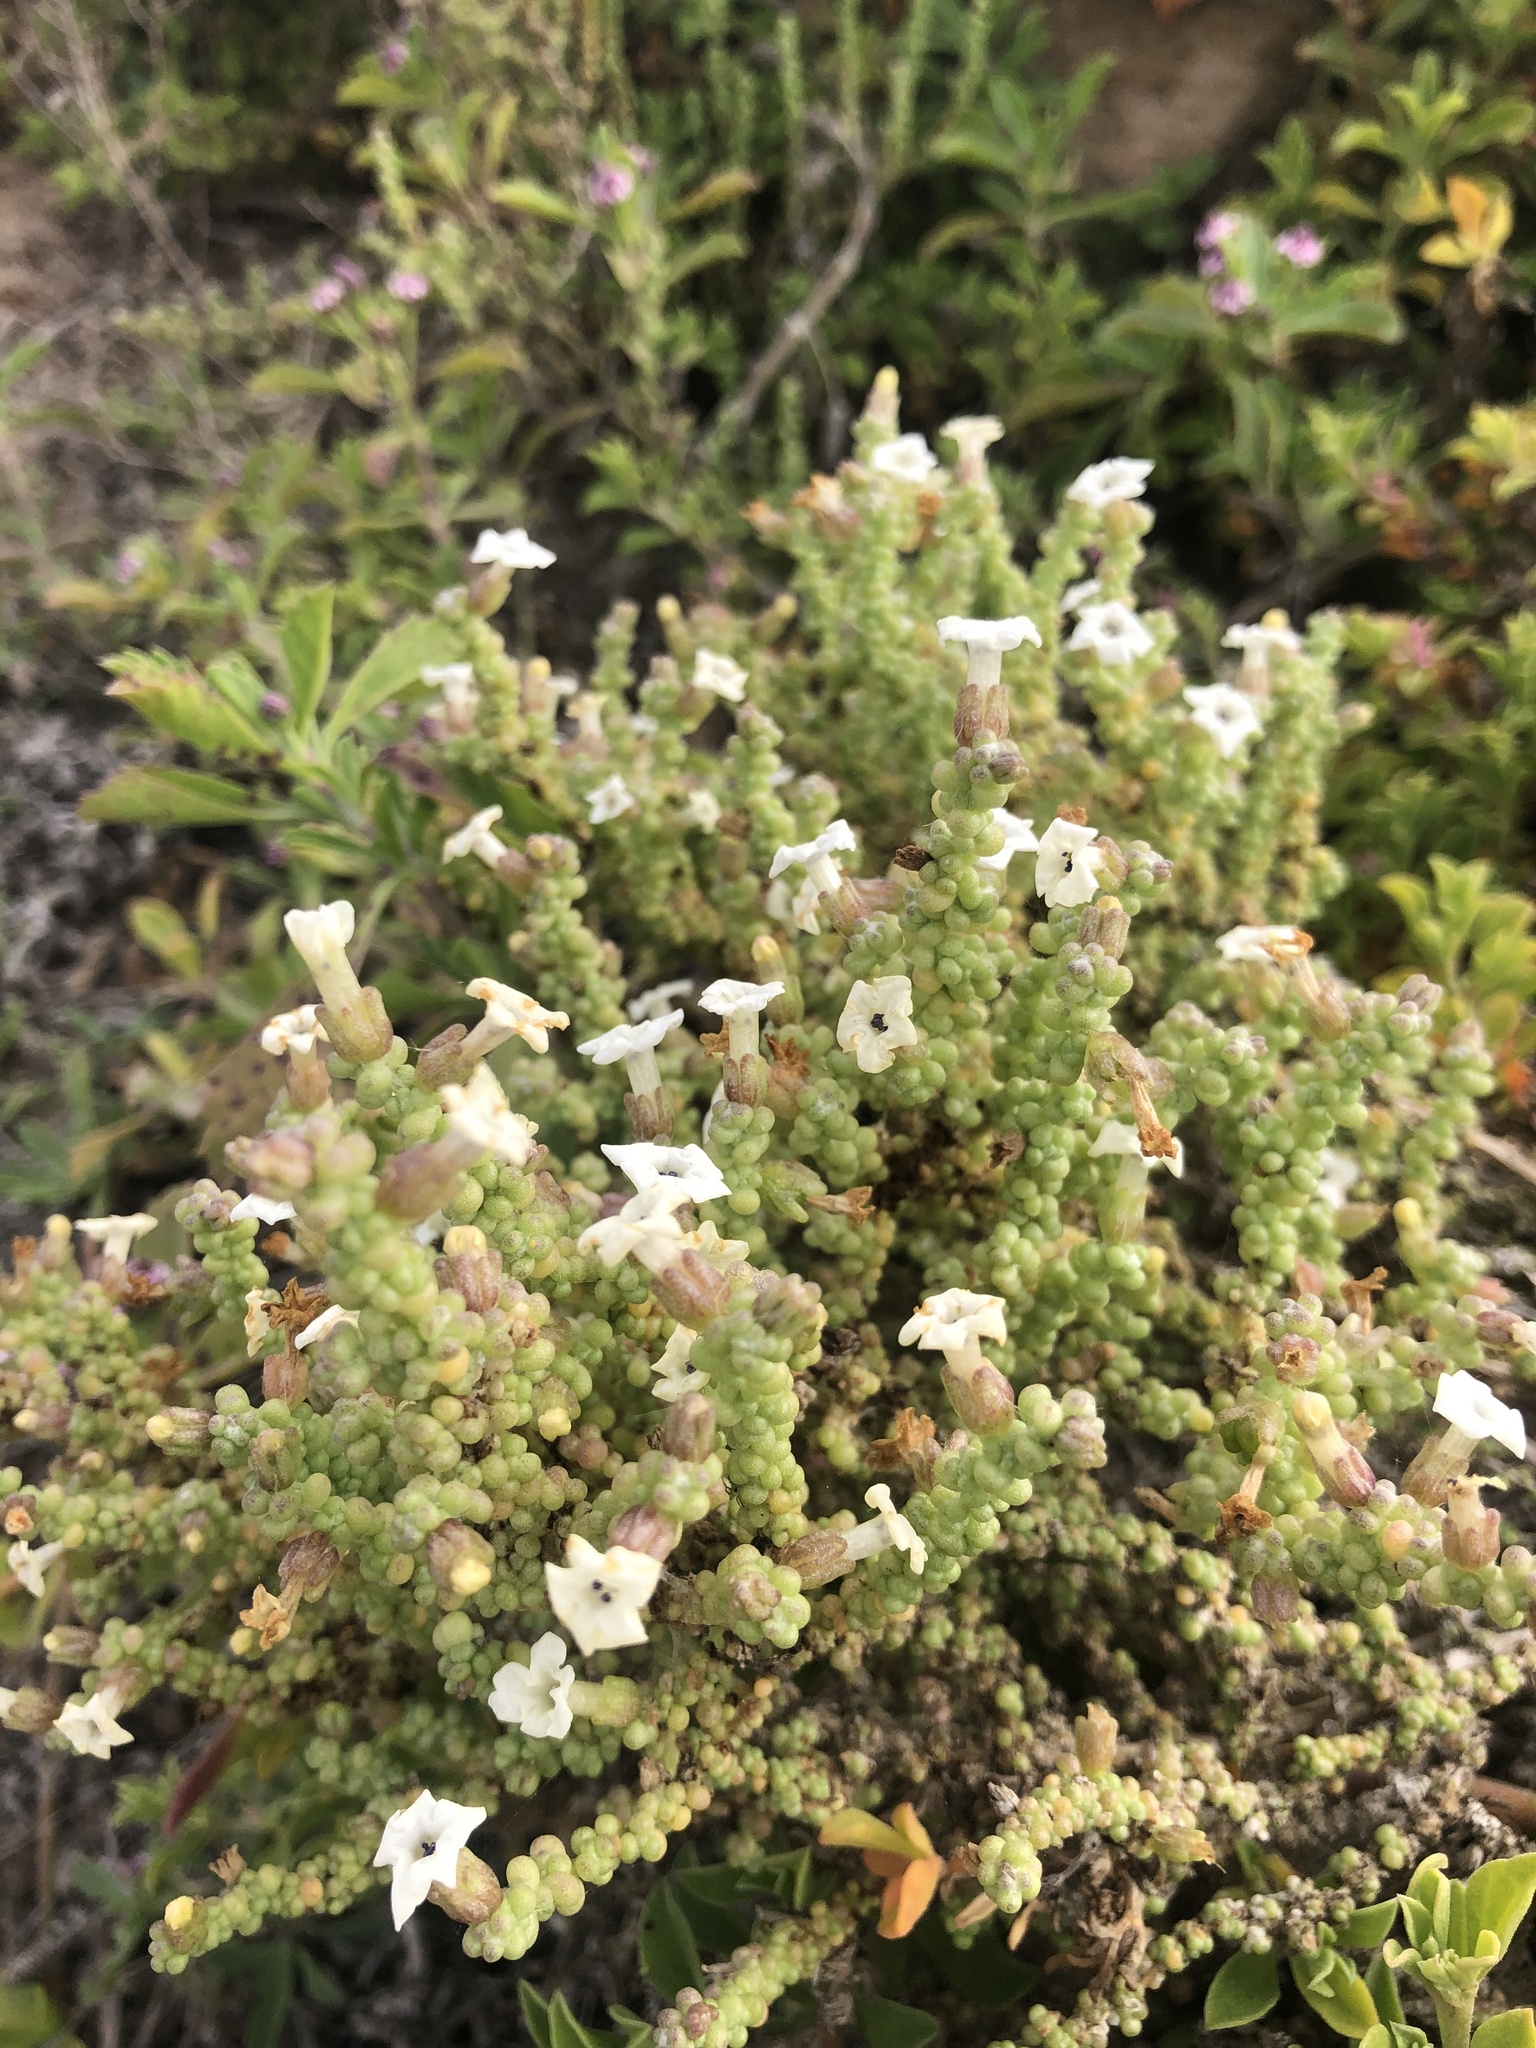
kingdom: Plantae
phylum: Tracheophyta
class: Magnoliopsida
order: Solanales
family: Solanaceae
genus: Nolana
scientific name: Nolana sedifolia
